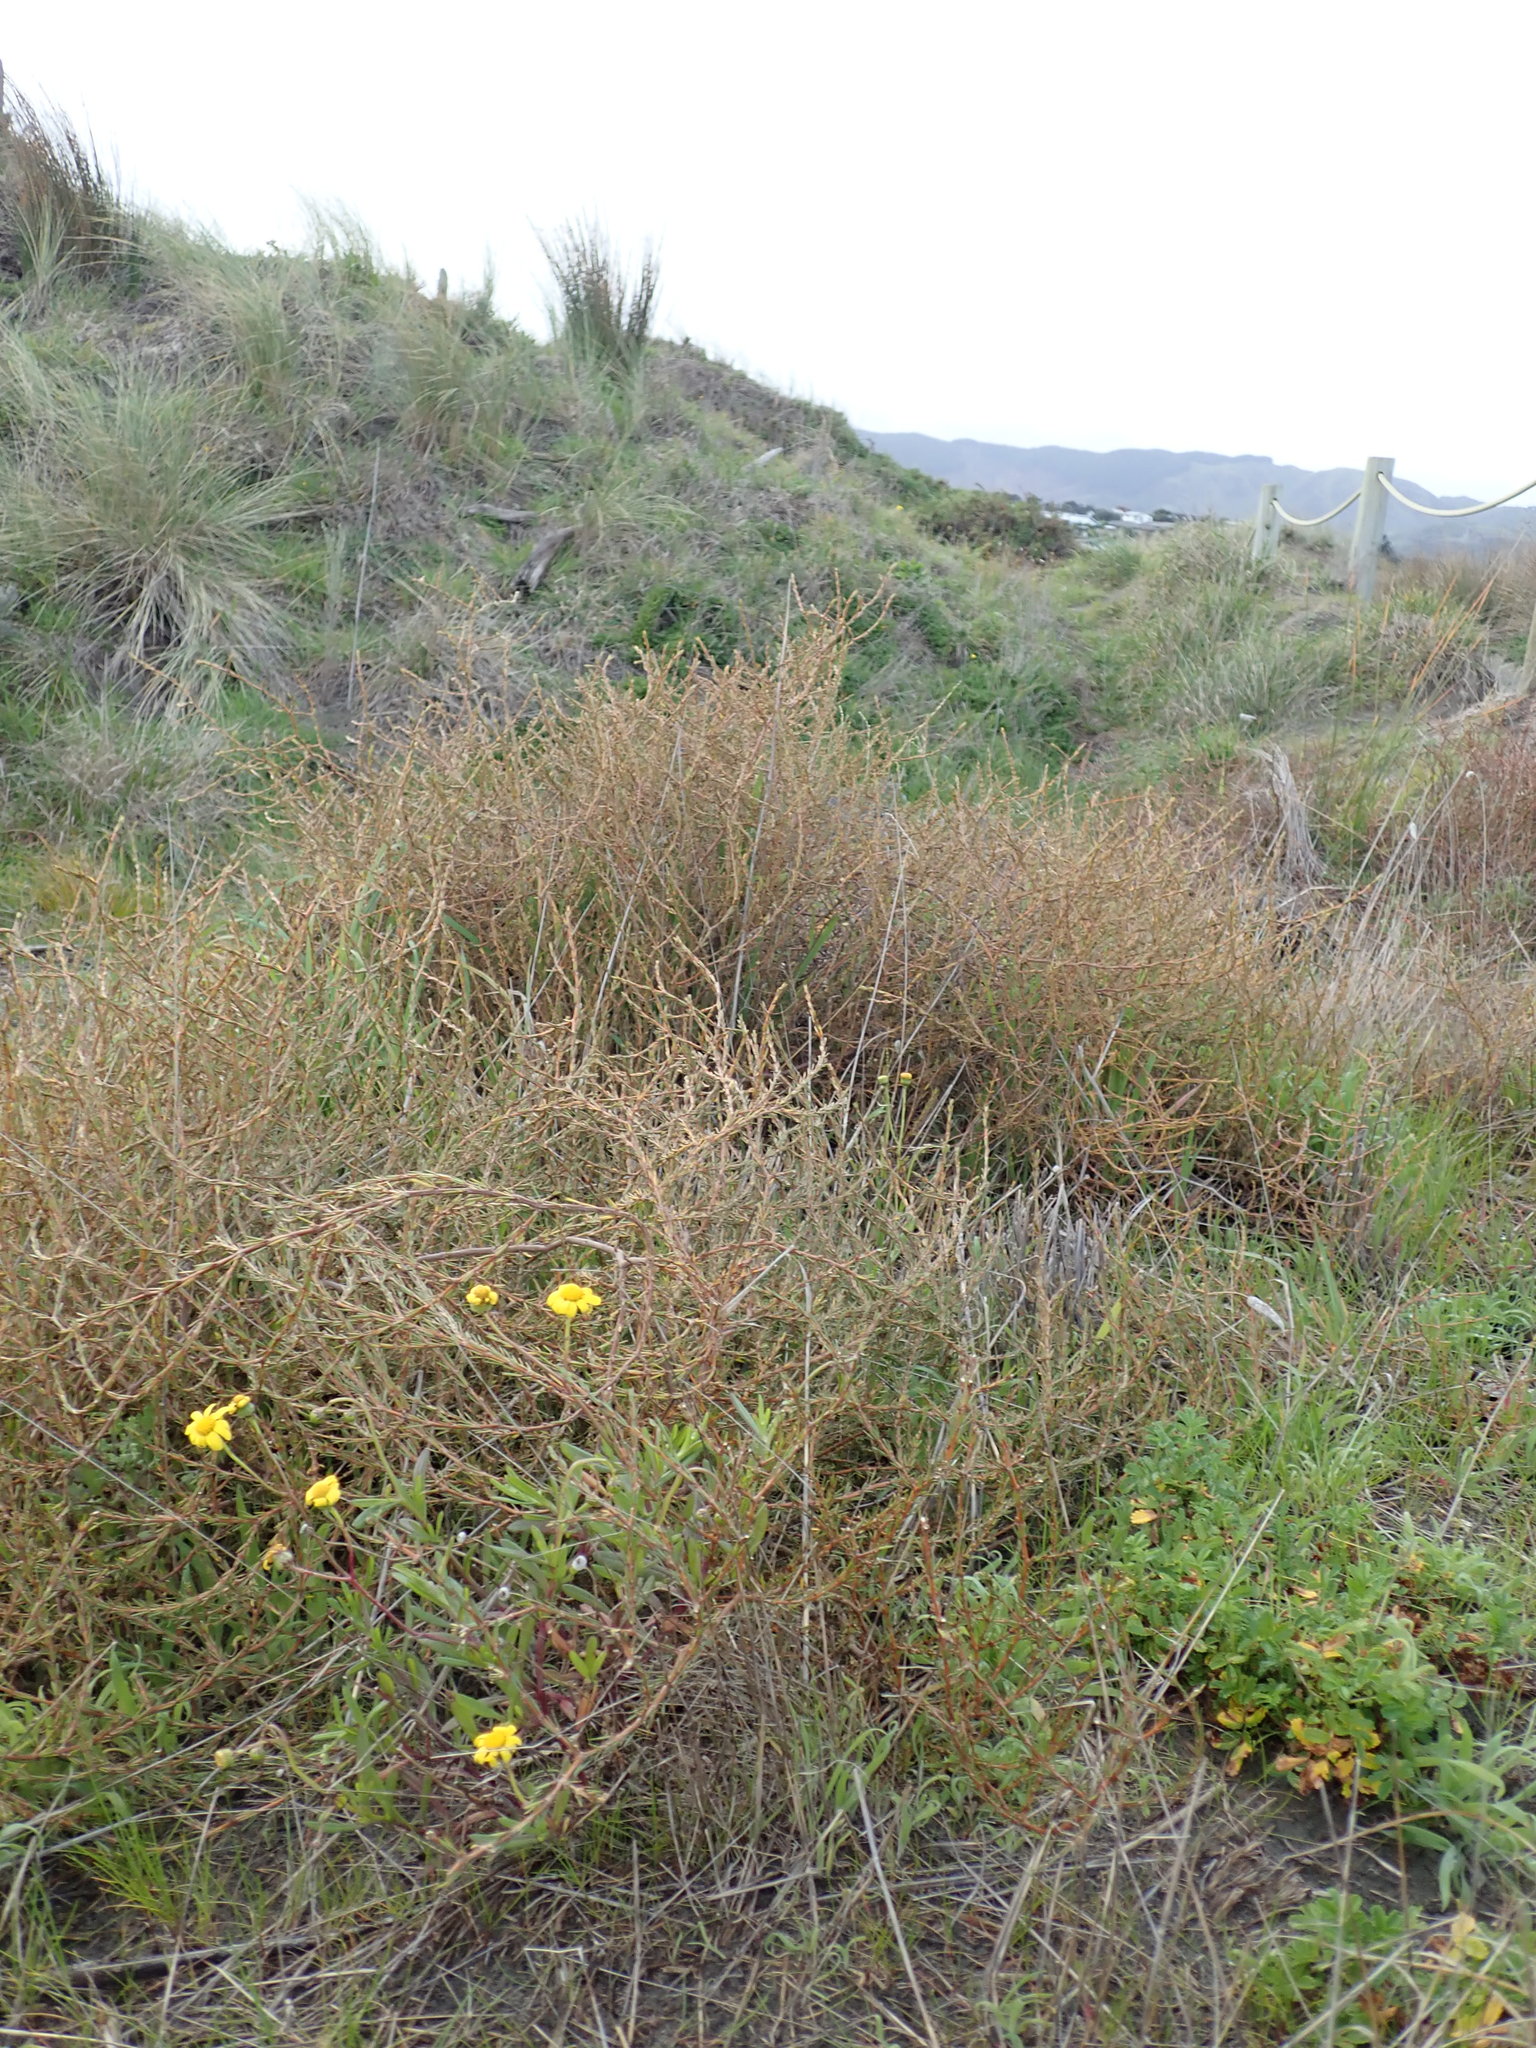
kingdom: Plantae
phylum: Tracheophyta
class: Magnoliopsida
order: Gentianales
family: Rubiaceae
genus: Coprosma
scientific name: Coprosma acerosa
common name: Sand coprosma
